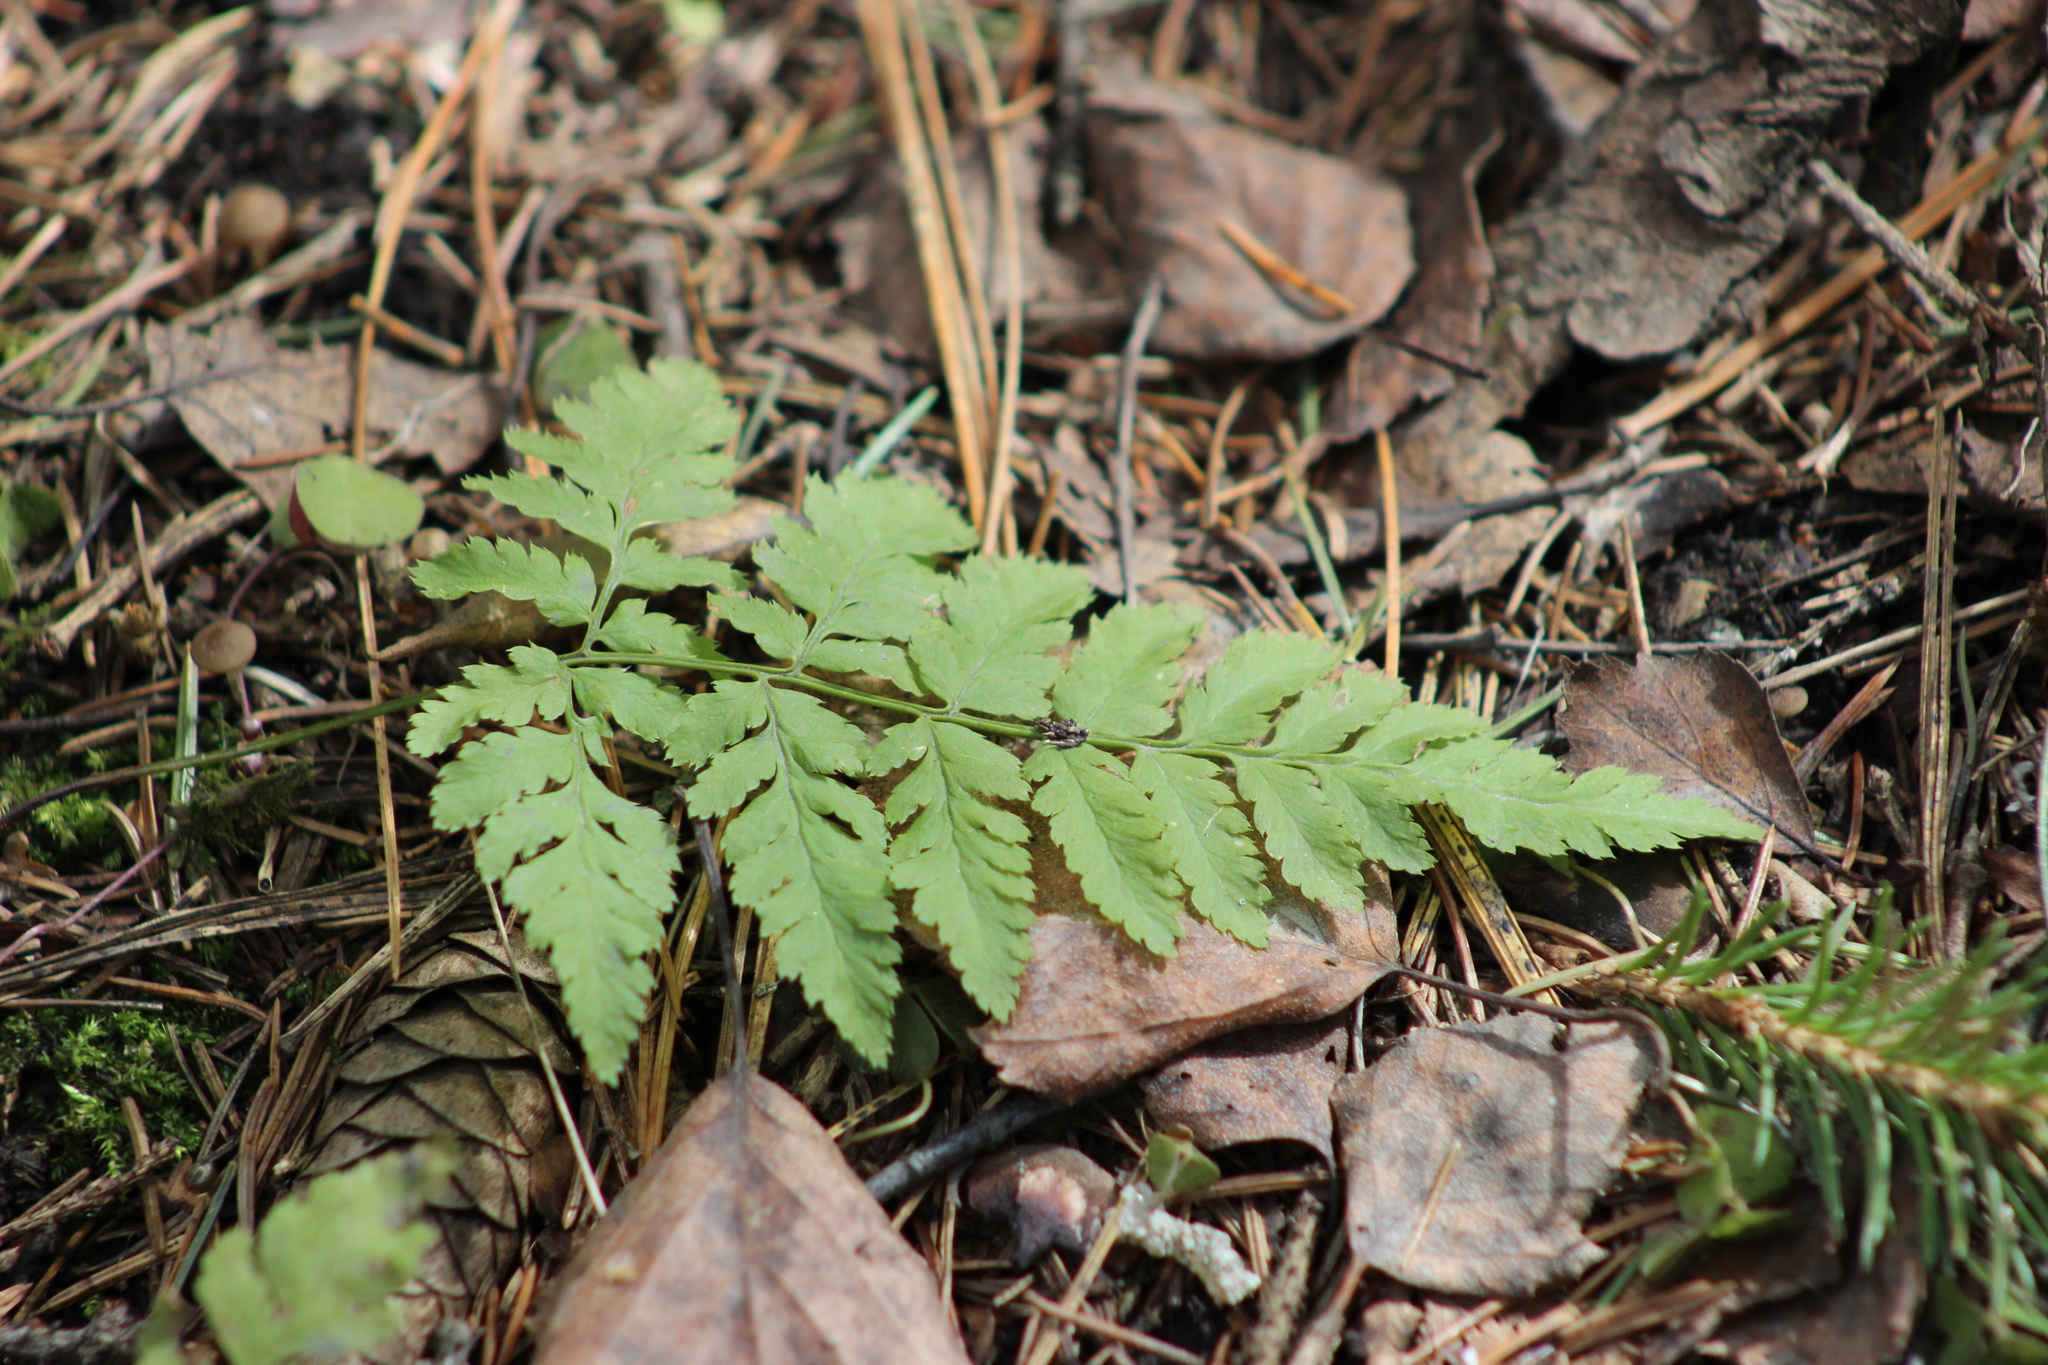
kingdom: Plantae
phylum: Tracheophyta
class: Polypodiopsida
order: Polypodiales
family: Dryopteridaceae
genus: Dryopteris
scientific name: Dryopteris carthusiana
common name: Narrow buckler-fern
